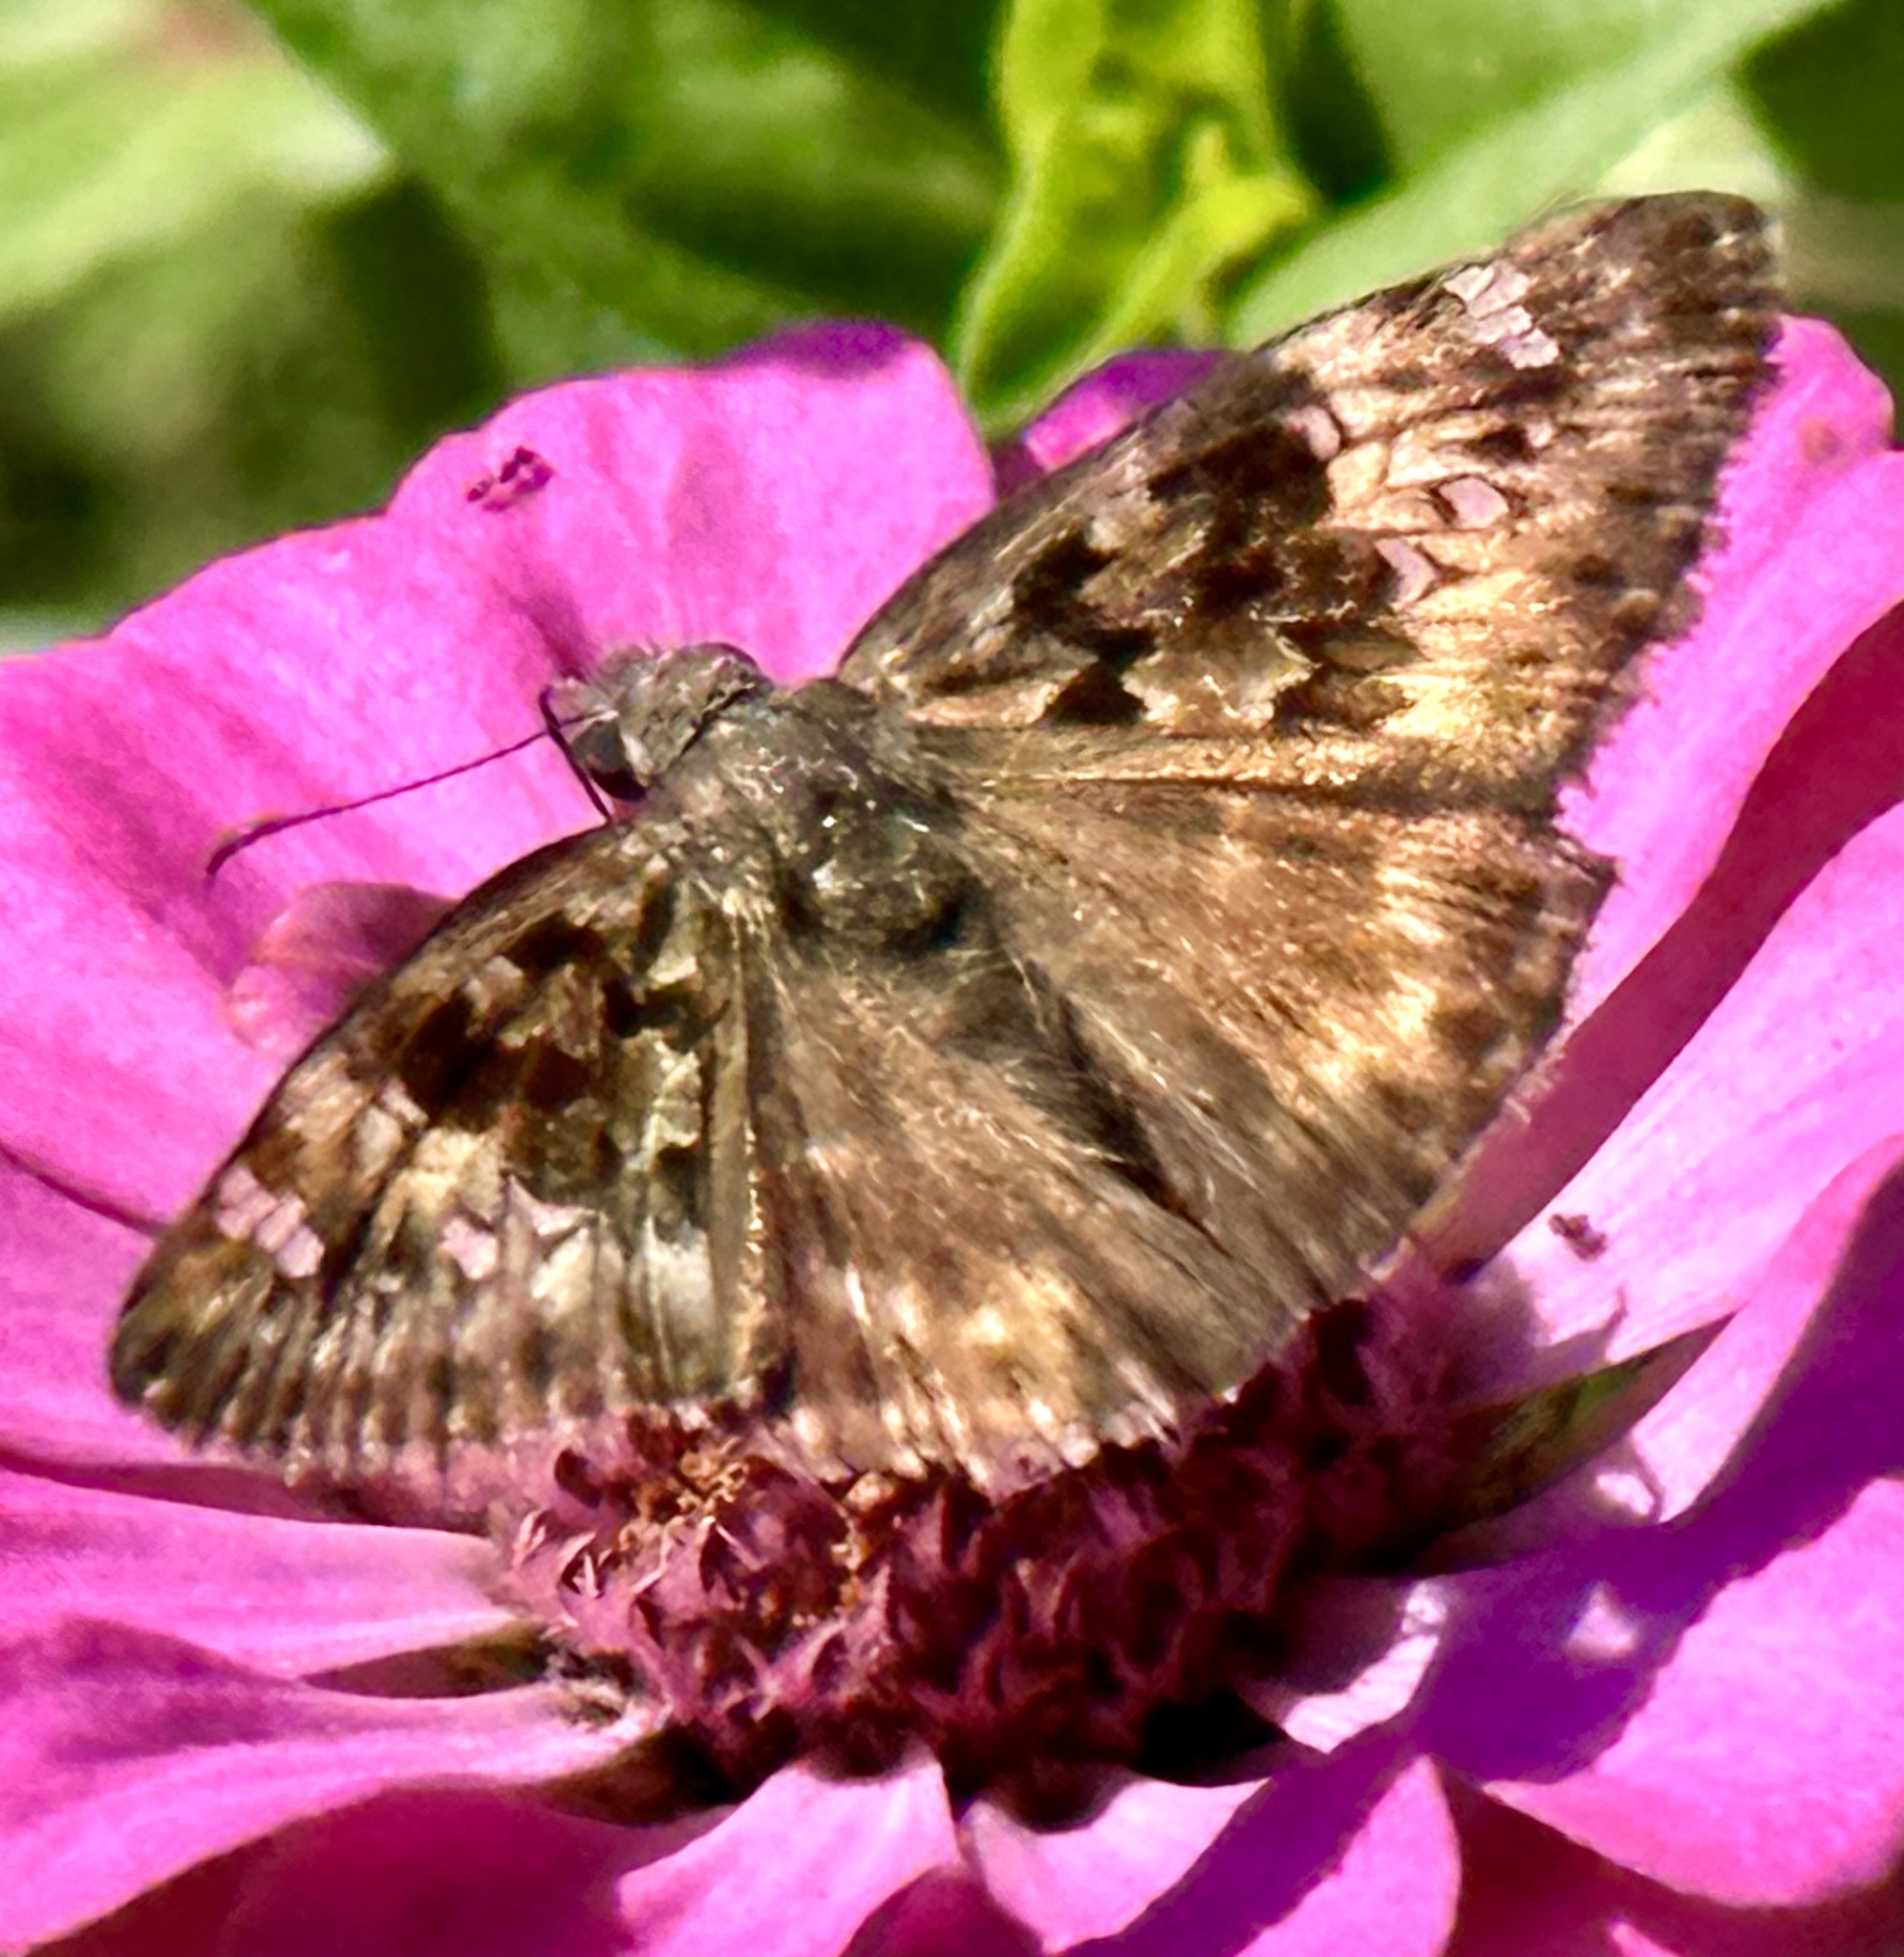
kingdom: Animalia
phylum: Arthropoda
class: Insecta
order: Lepidoptera
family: Hesperiidae
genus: Erynnis
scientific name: Erynnis horatius
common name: Horace's duskywing
